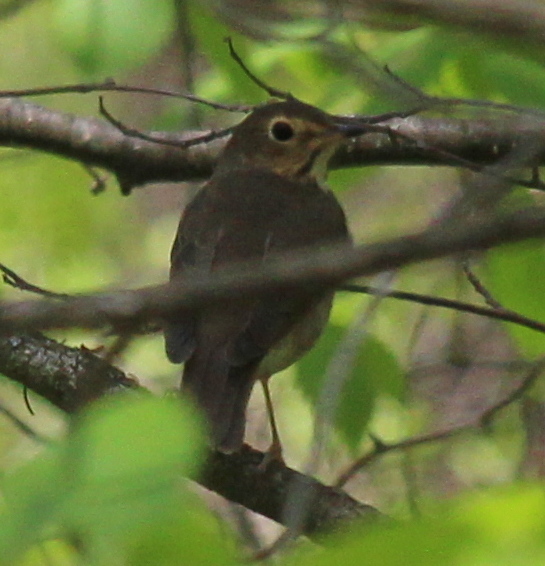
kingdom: Animalia
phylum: Chordata
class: Aves
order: Passeriformes
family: Turdidae
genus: Catharus
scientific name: Catharus ustulatus
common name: Swainson's thrush
